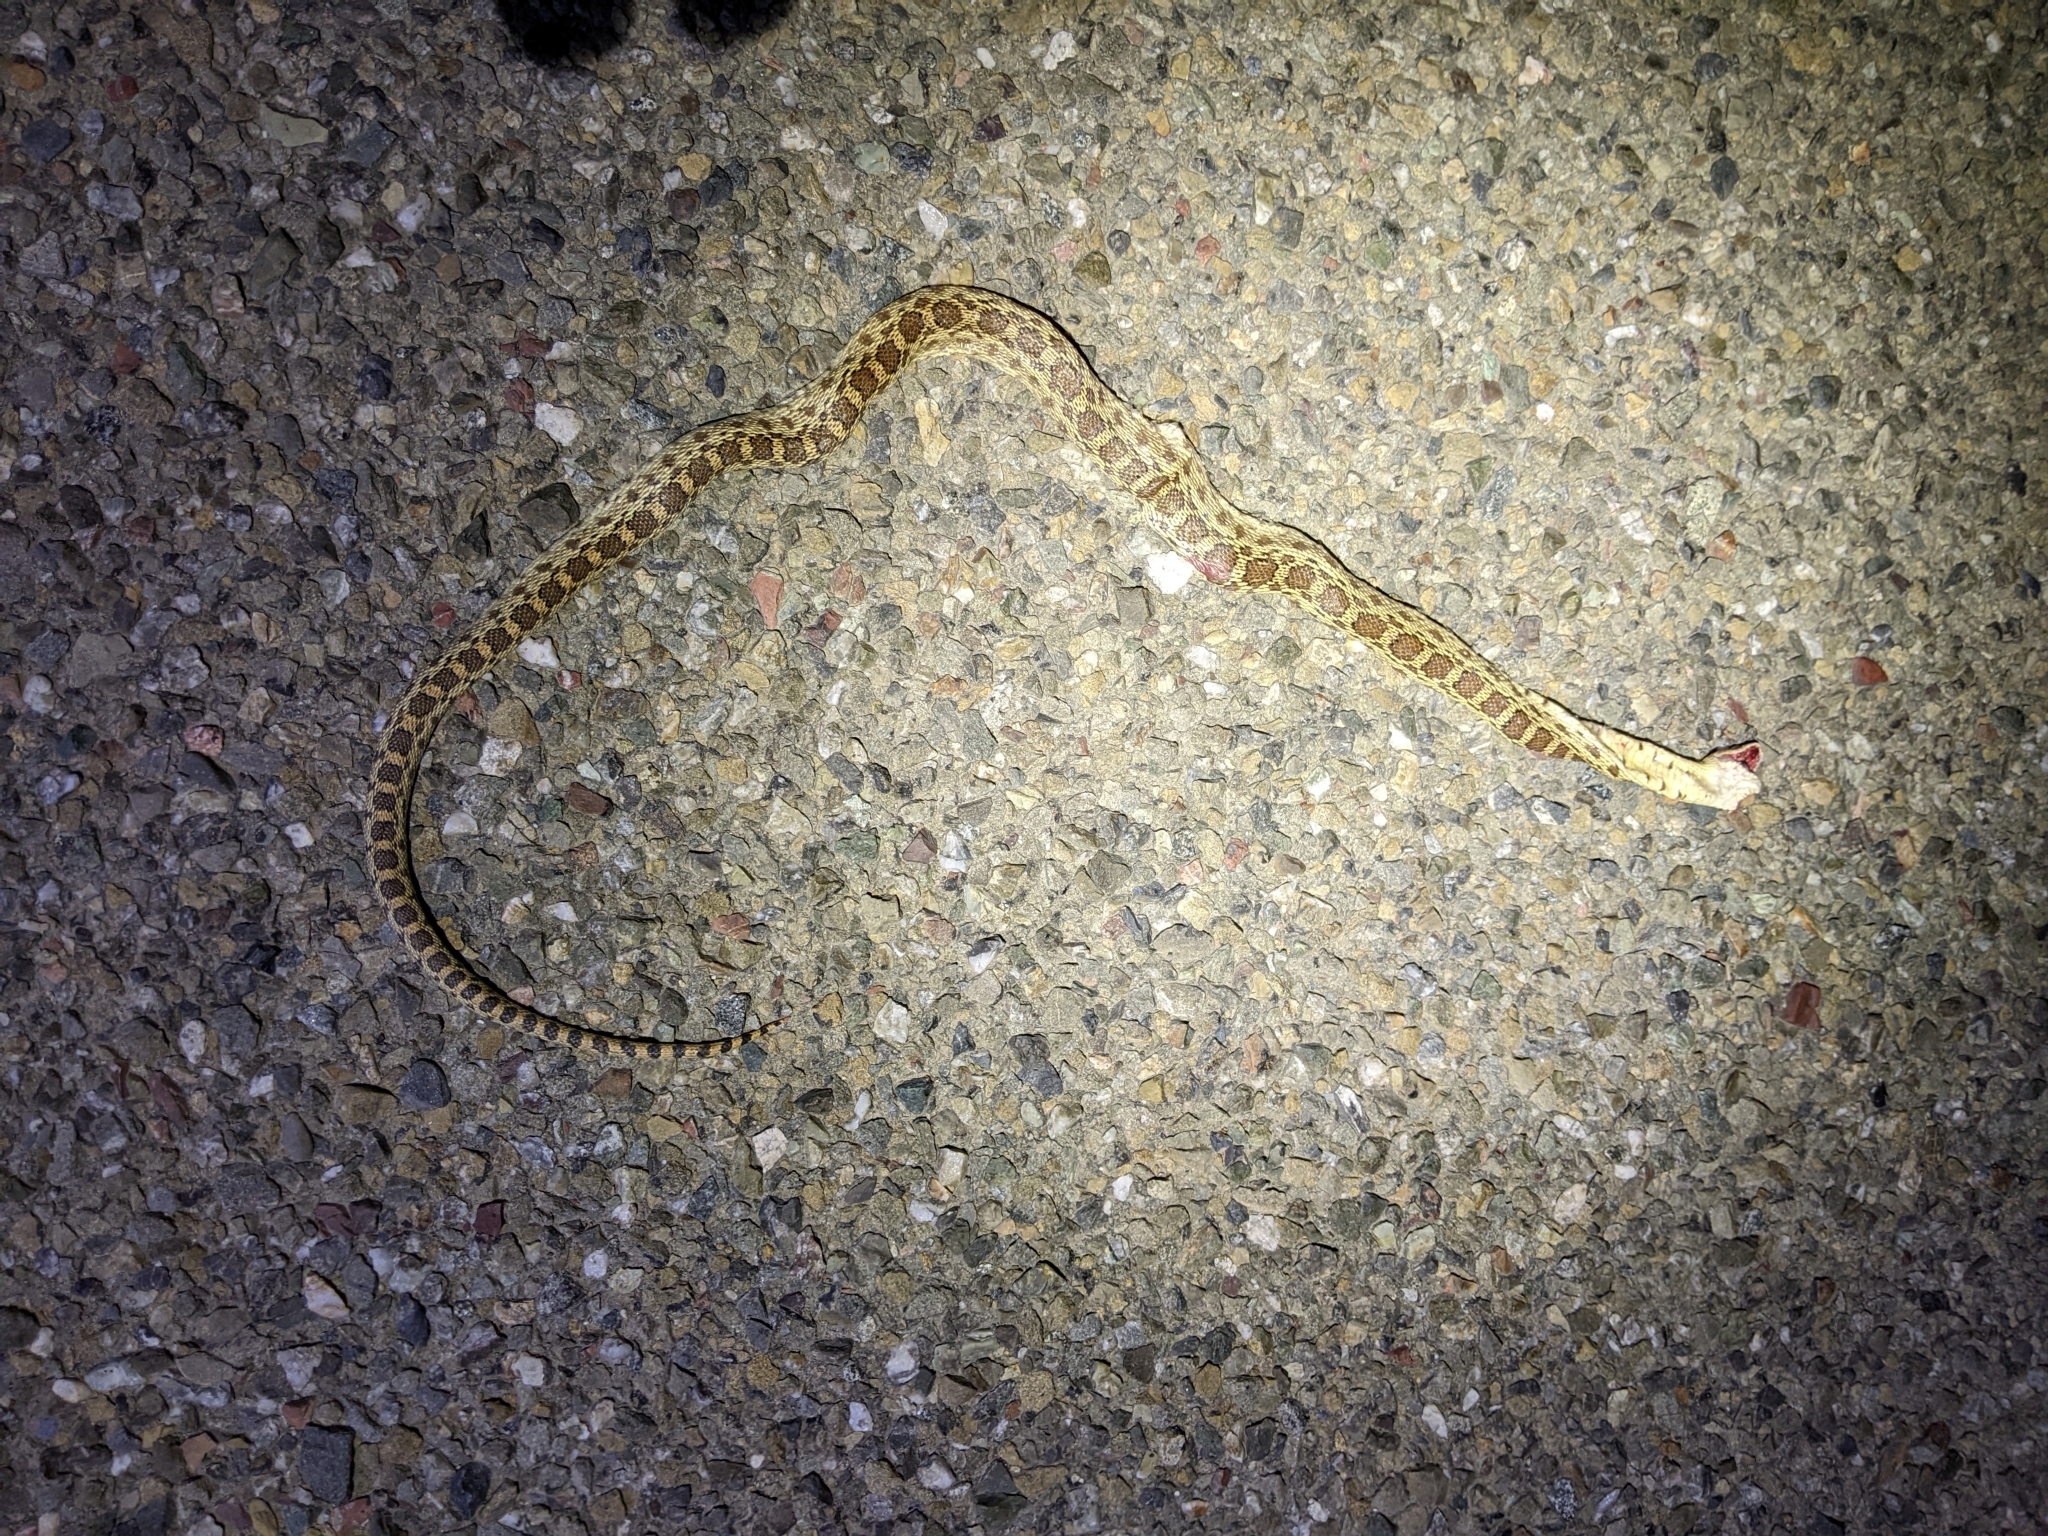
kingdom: Animalia
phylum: Chordata
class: Squamata
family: Colubridae
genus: Pituophis
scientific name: Pituophis catenifer
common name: Gopher snake
